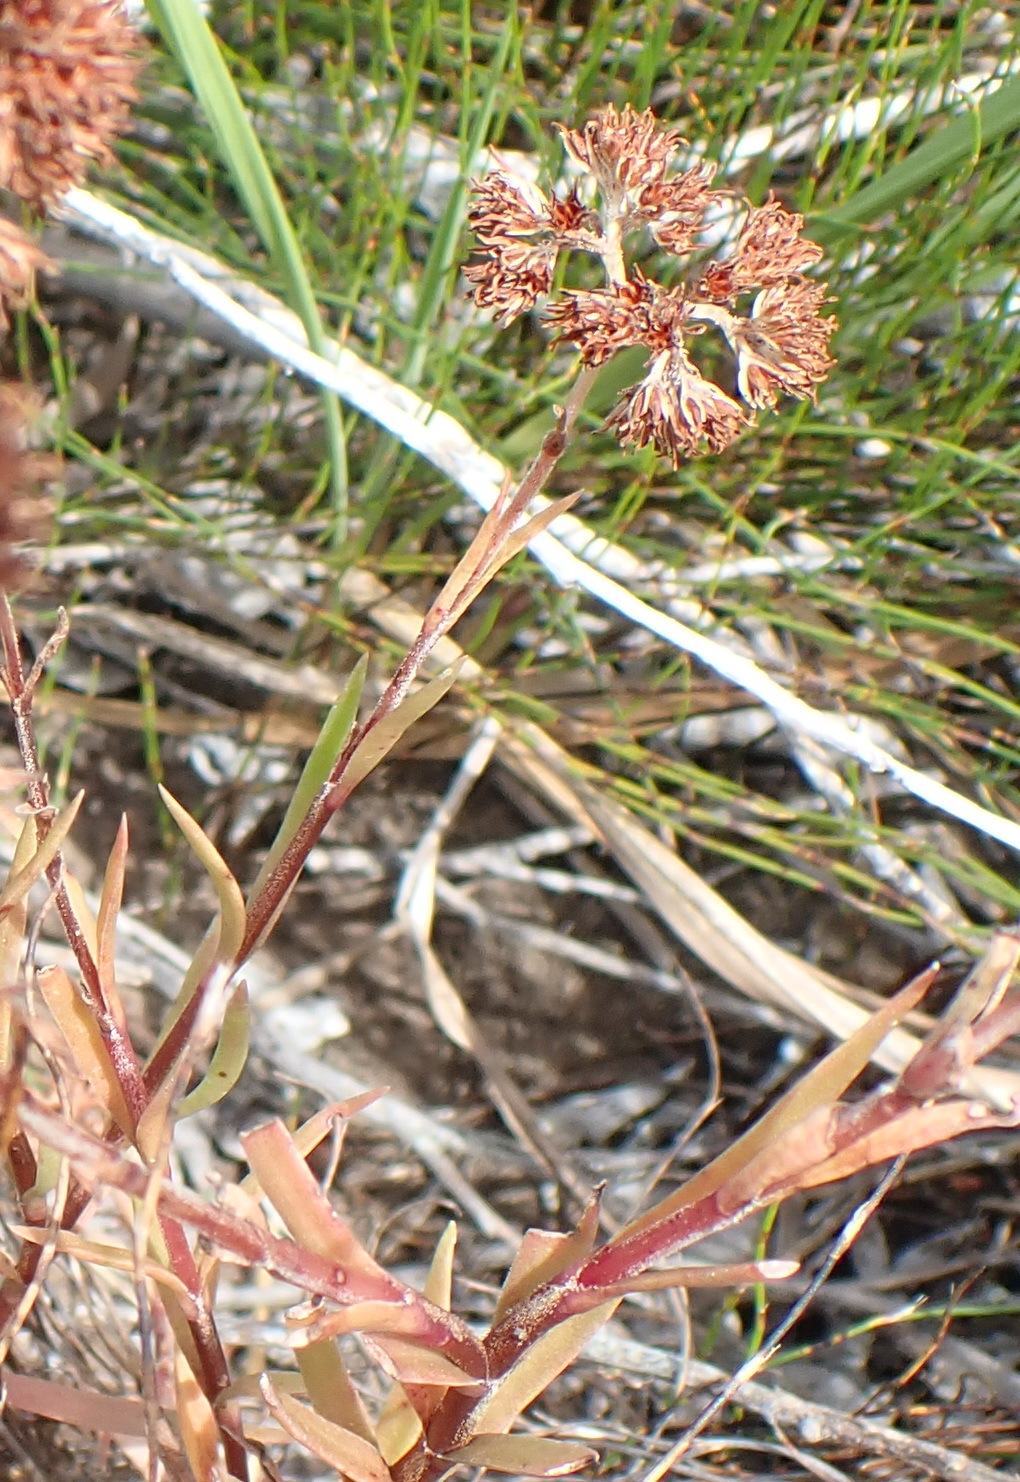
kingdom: Plantae
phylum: Tracheophyta
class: Magnoliopsida
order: Saxifragales
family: Crassulaceae
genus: Crassula
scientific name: Crassula subulata
